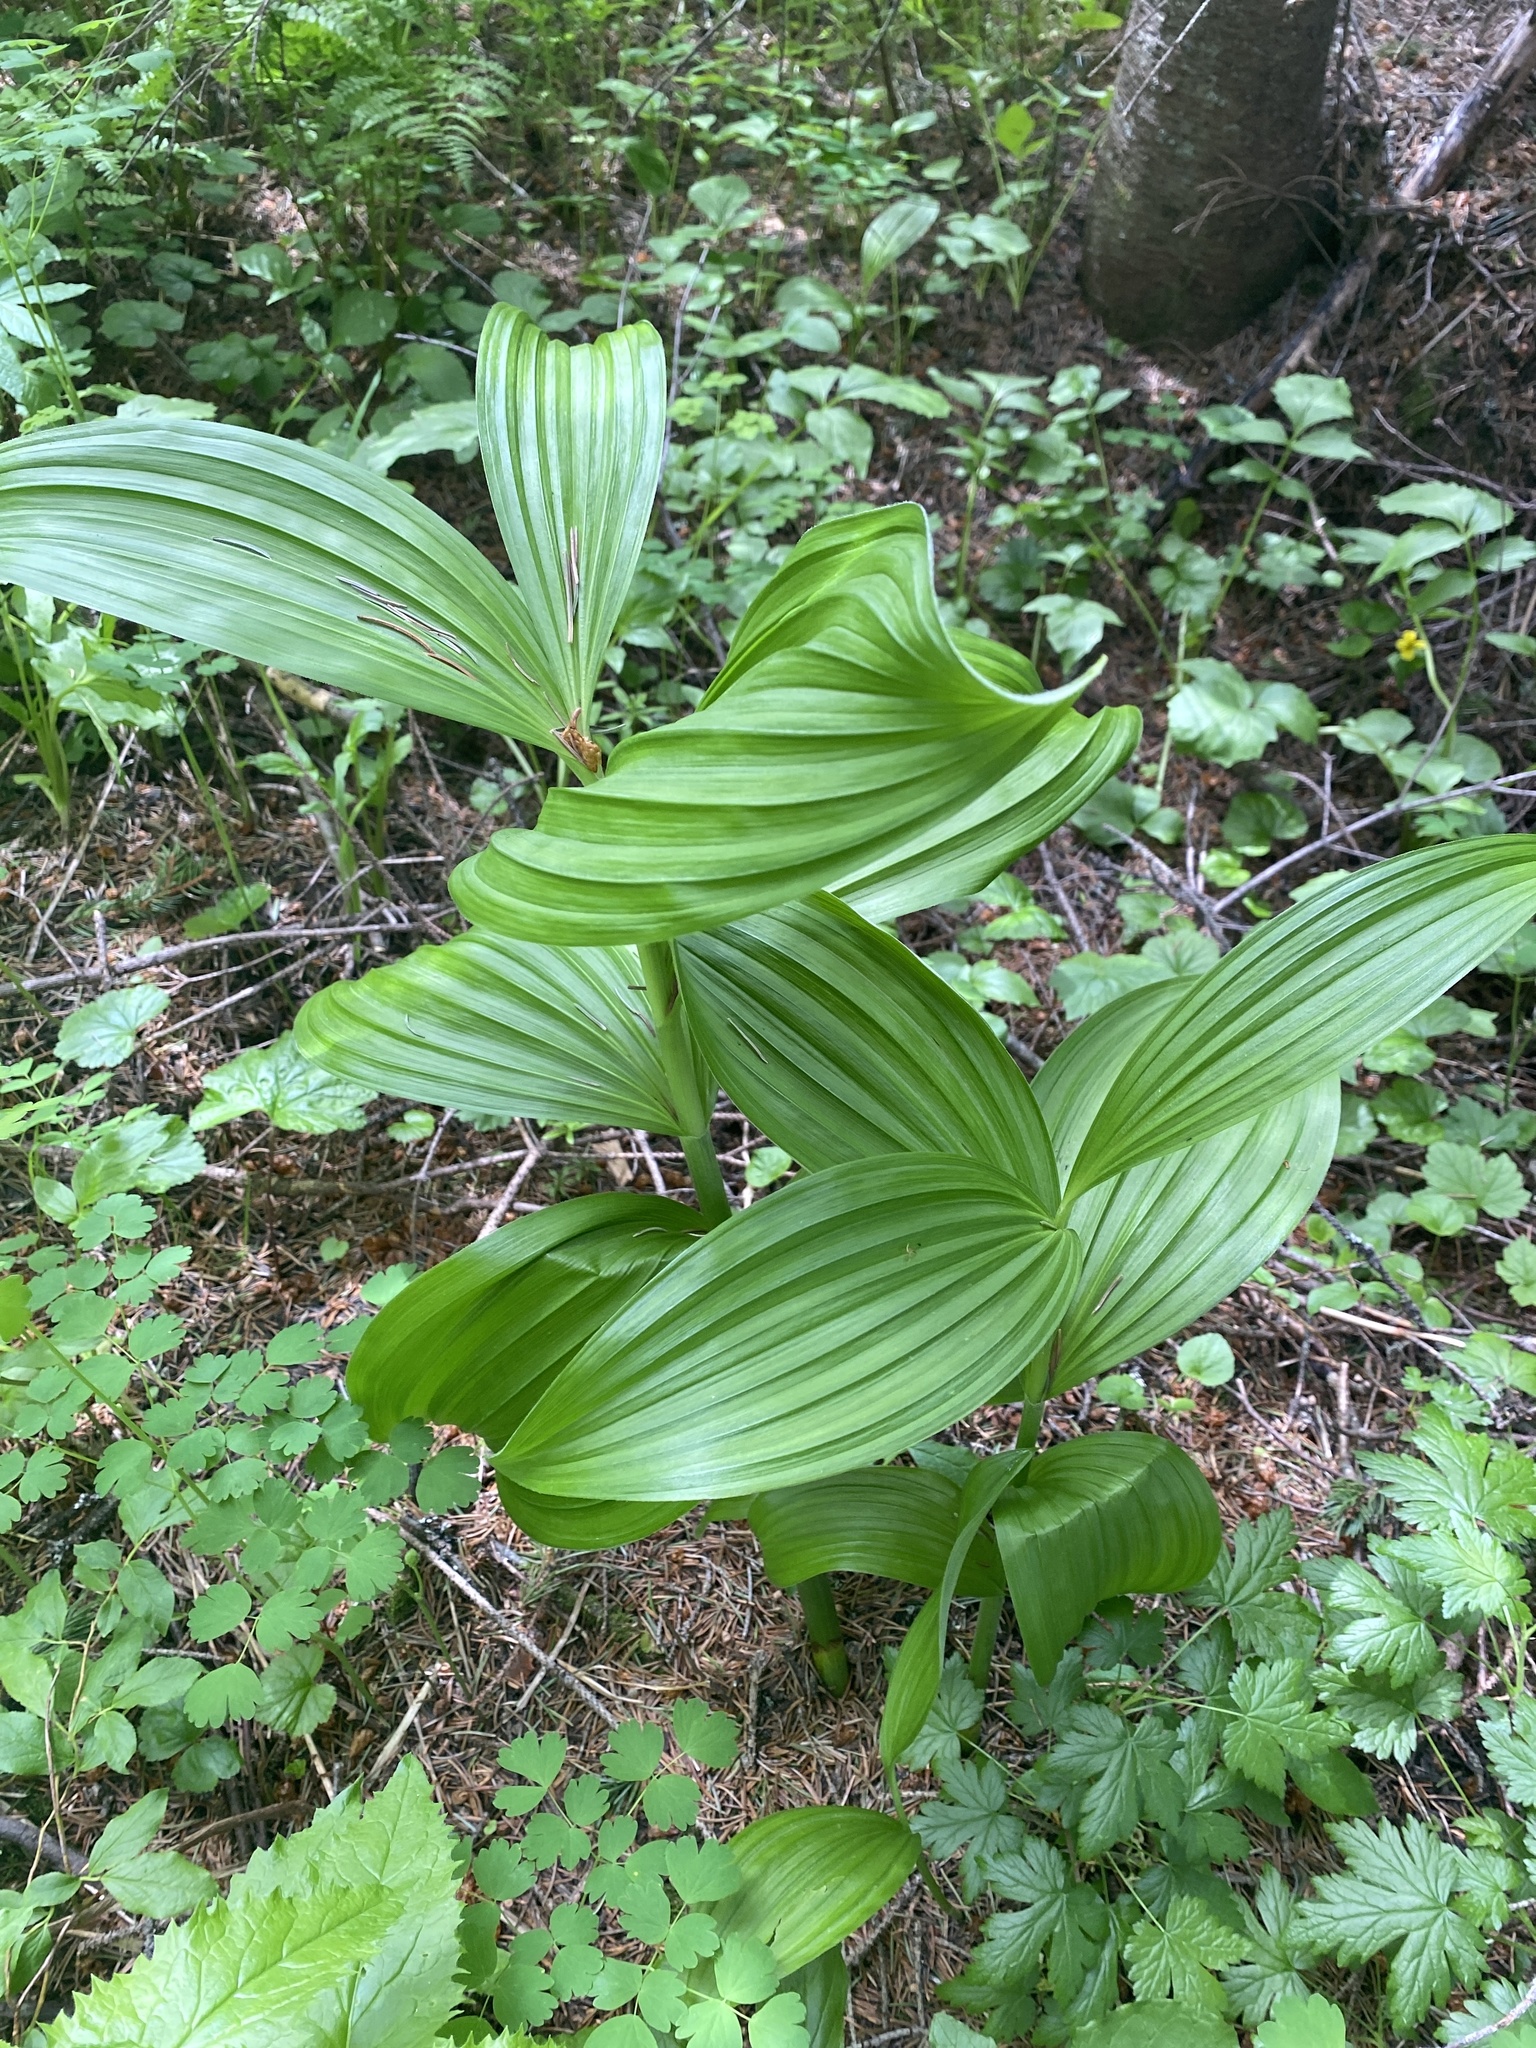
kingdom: Plantae
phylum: Tracheophyta
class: Liliopsida
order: Liliales
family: Melanthiaceae
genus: Veratrum
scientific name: Veratrum viride
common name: American false hellebore
